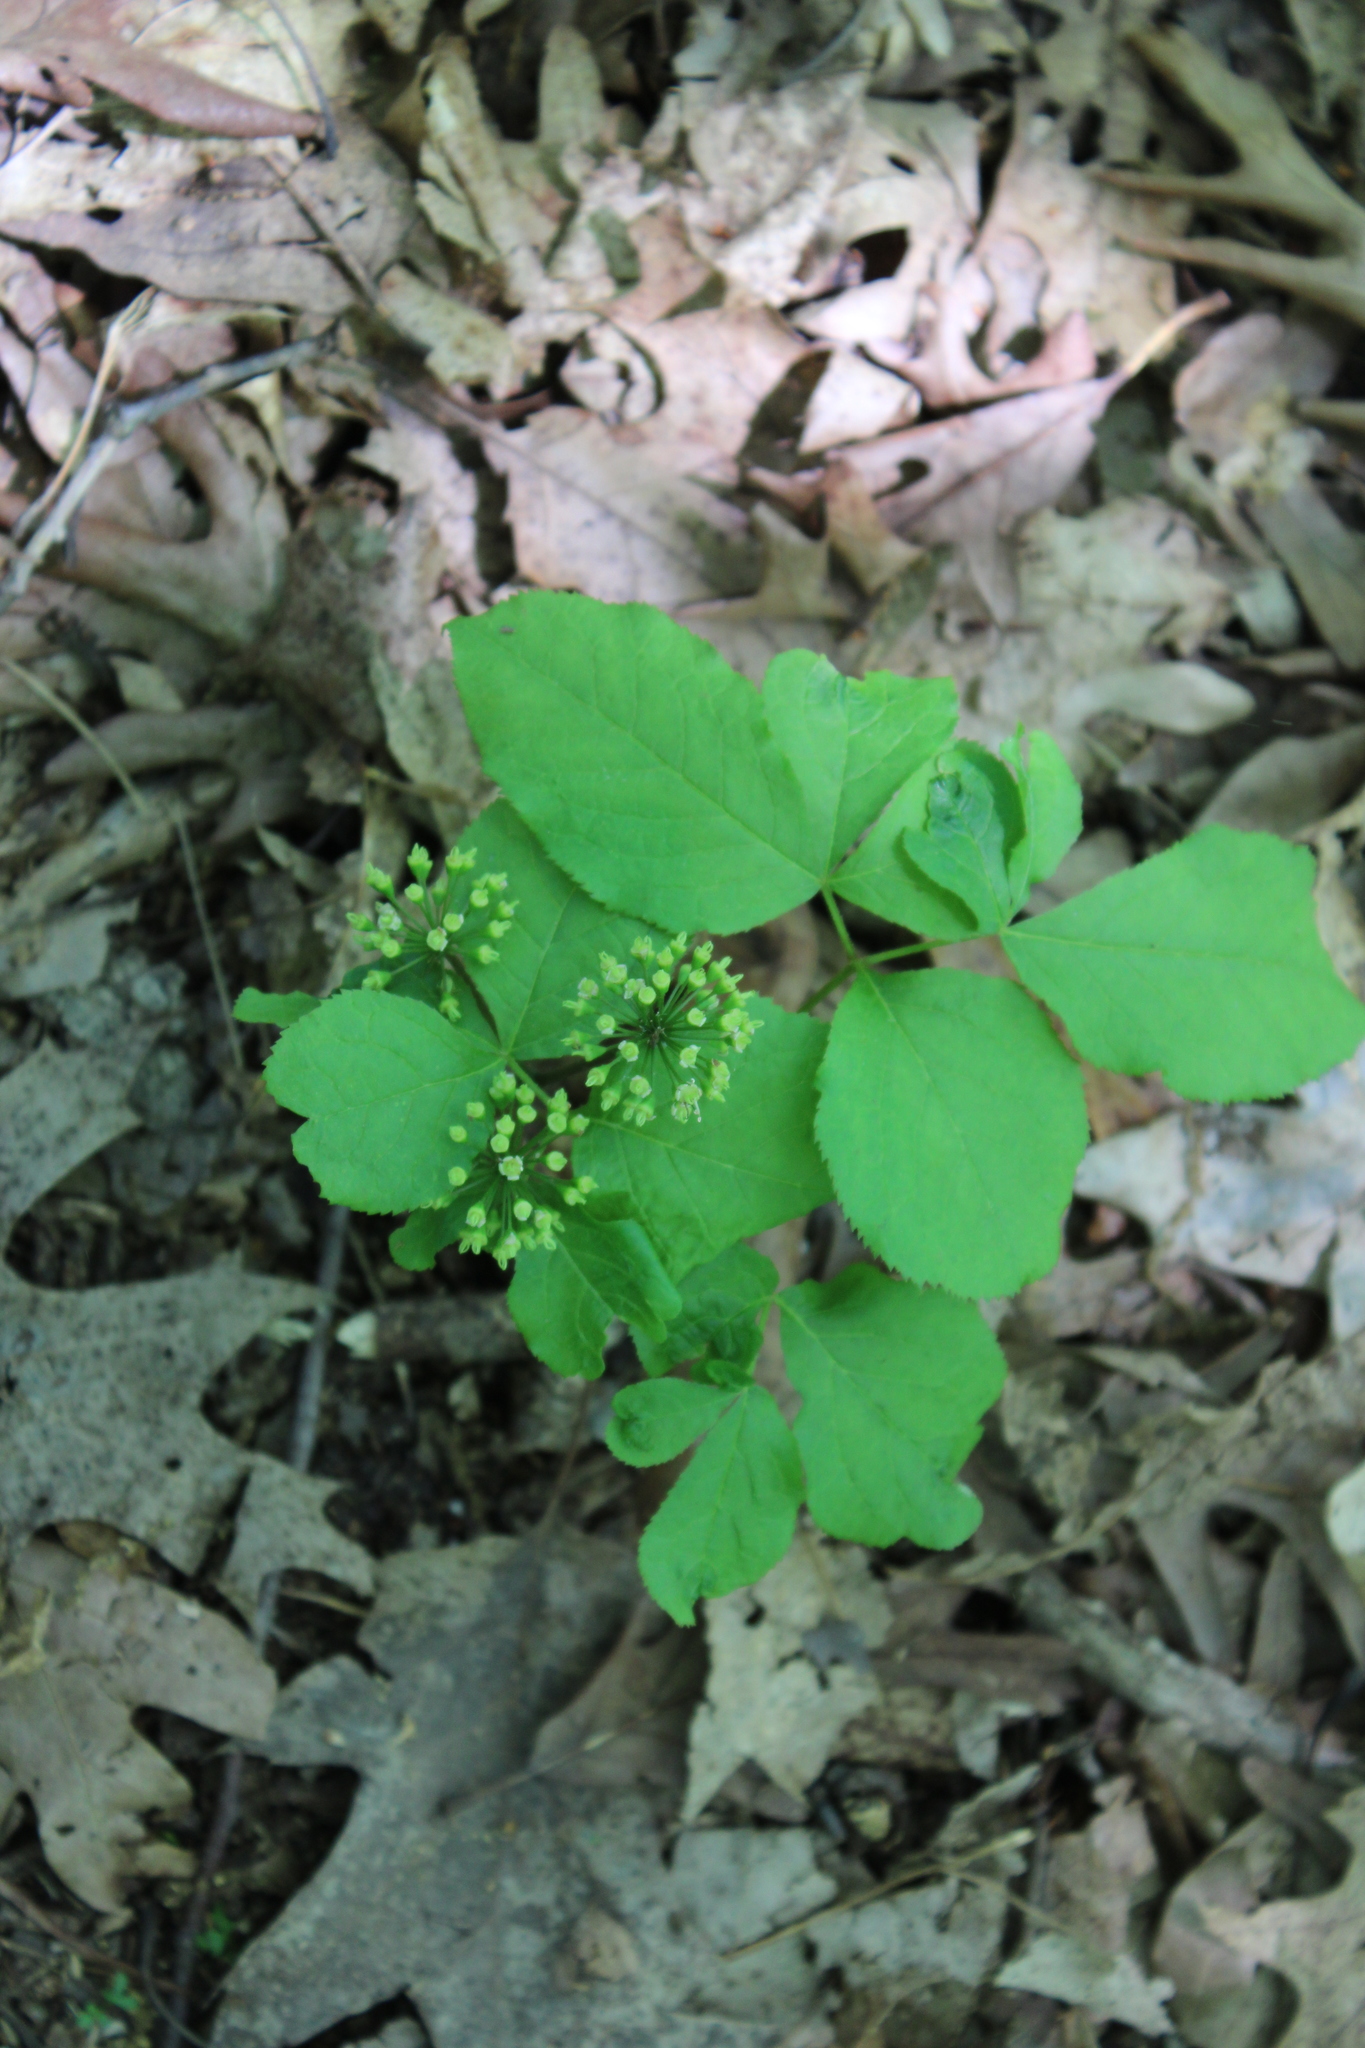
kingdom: Plantae
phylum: Tracheophyta
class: Magnoliopsida
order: Apiales
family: Araliaceae
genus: Aralia
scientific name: Aralia nudicaulis
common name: Wild sarsaparilla
